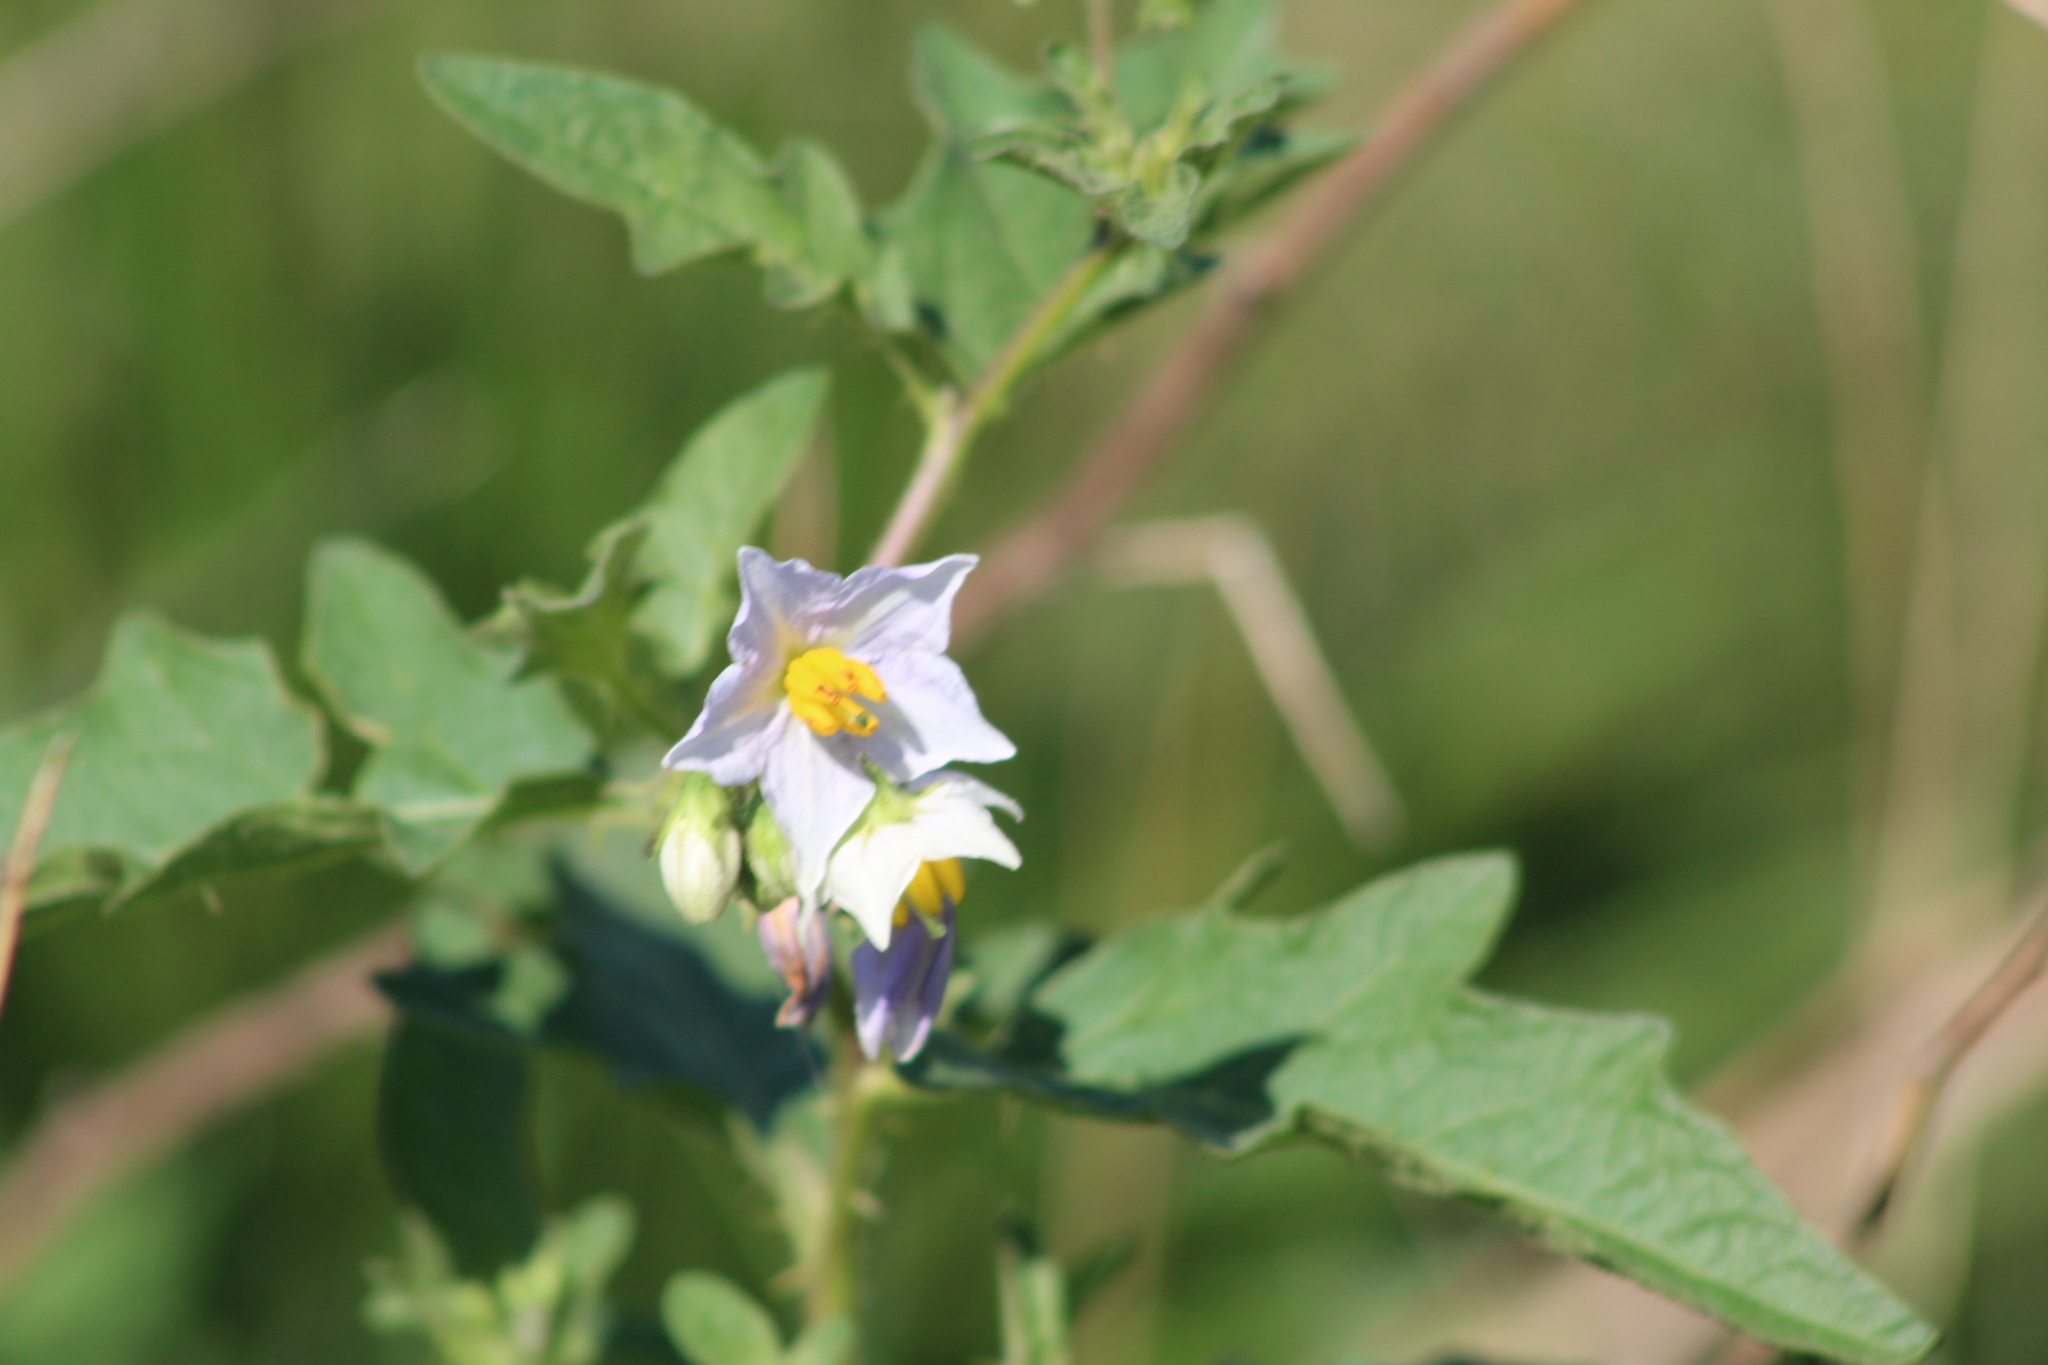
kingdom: Plantae
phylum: Tracheophyta
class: Magnoliopsida
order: Solanales
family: Solanaceae
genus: Solanum
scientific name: Solanum carolinense
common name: Horse-nettle
